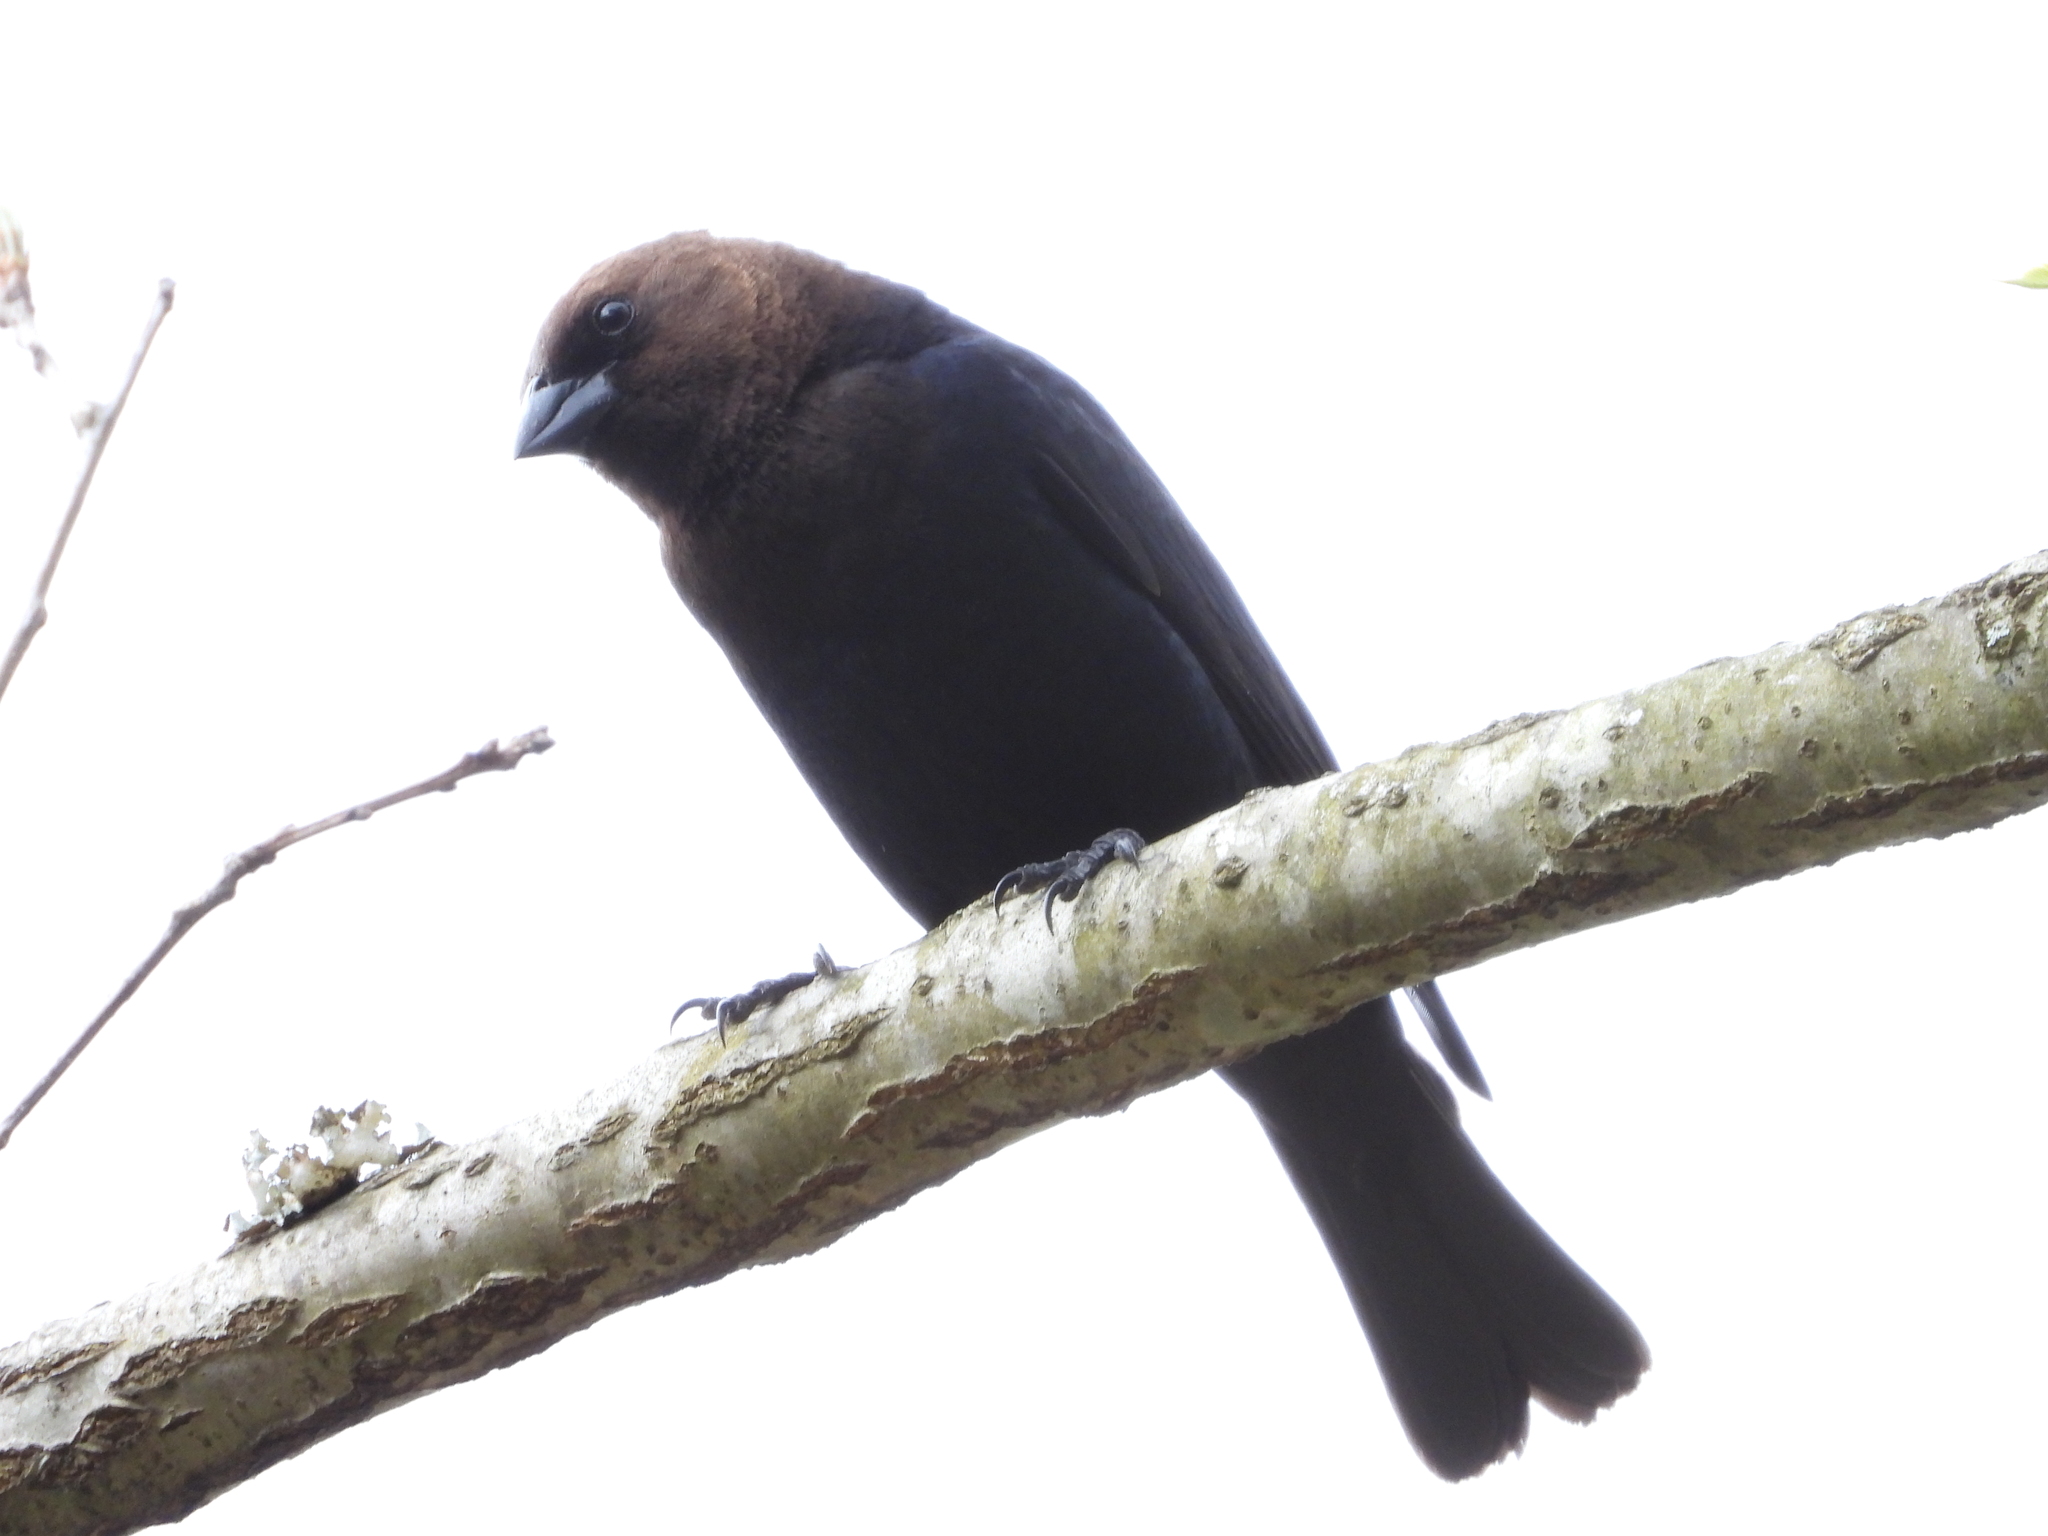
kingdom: Animalia
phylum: Chordata
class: Aves
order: Passeriformes
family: Icteridae
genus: Molothrus
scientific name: Molothrus ater
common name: Brown-headed cowbird
